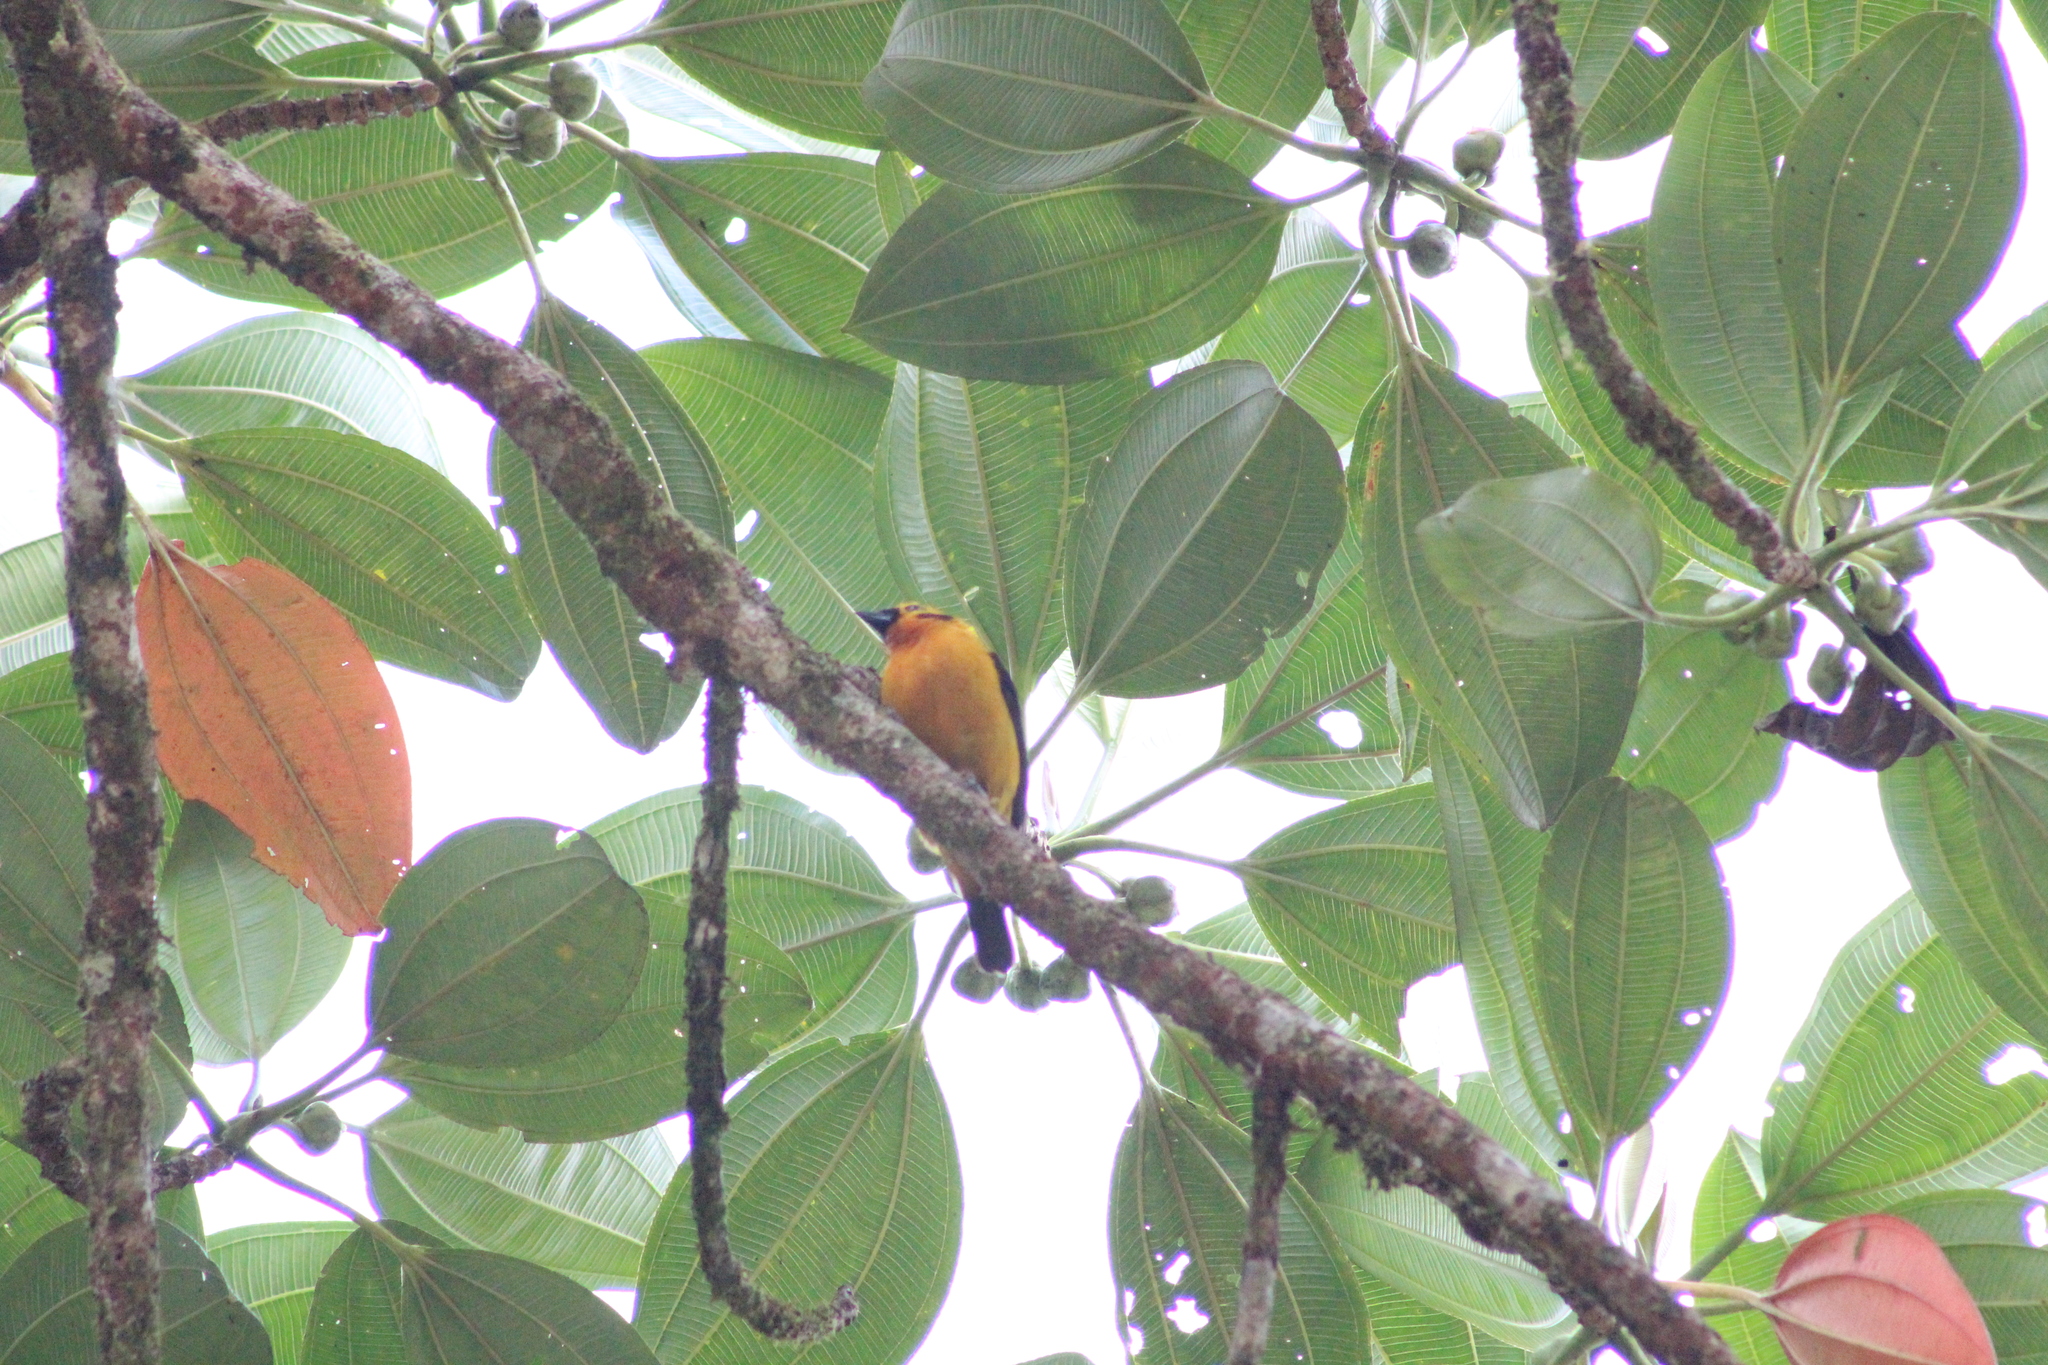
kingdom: Animalia
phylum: Chordata
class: Aves
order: Passeriformes
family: Thraupidae
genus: Tangara
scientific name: Tangara arthus
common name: Golden tanager
